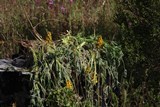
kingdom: Plantae
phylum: Tracheophyta
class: Magnoliopsida
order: Fabales
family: Fabaceae
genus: Lupinus
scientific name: Lupinus luteus
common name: European yellow lupine
